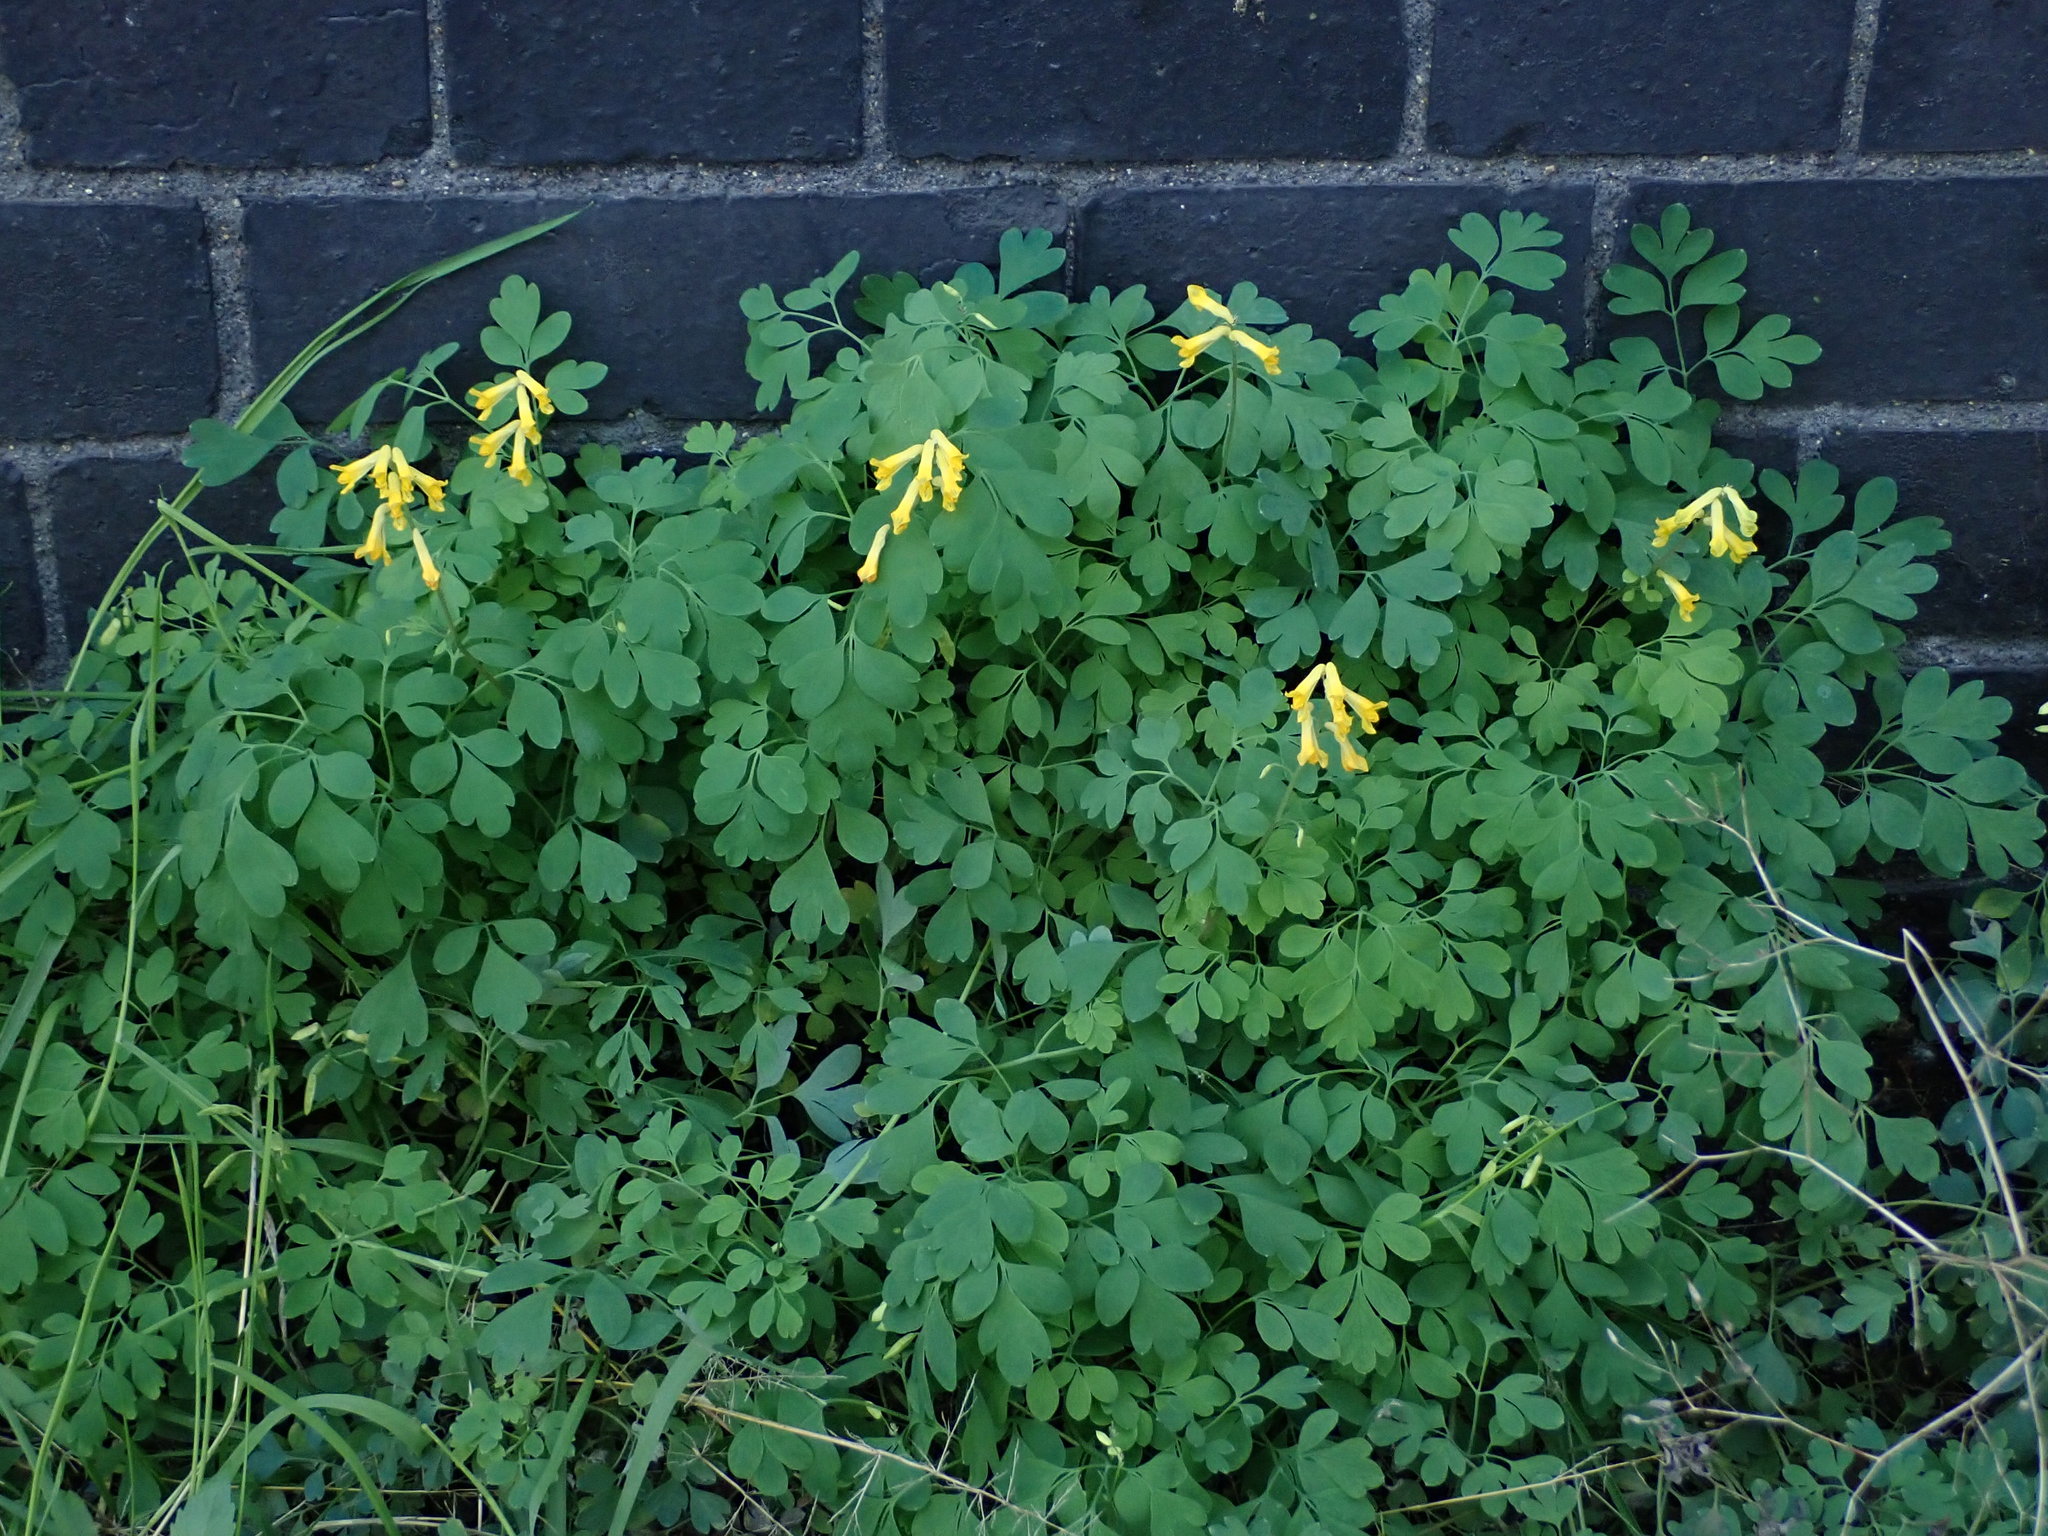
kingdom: Plantae
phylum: Tracheophyta
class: Magnoliopsida
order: Ranunculales
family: Papaveraceae
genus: Pseudofumaria
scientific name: Pseudofumaria lutea
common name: Yellow corydalis
